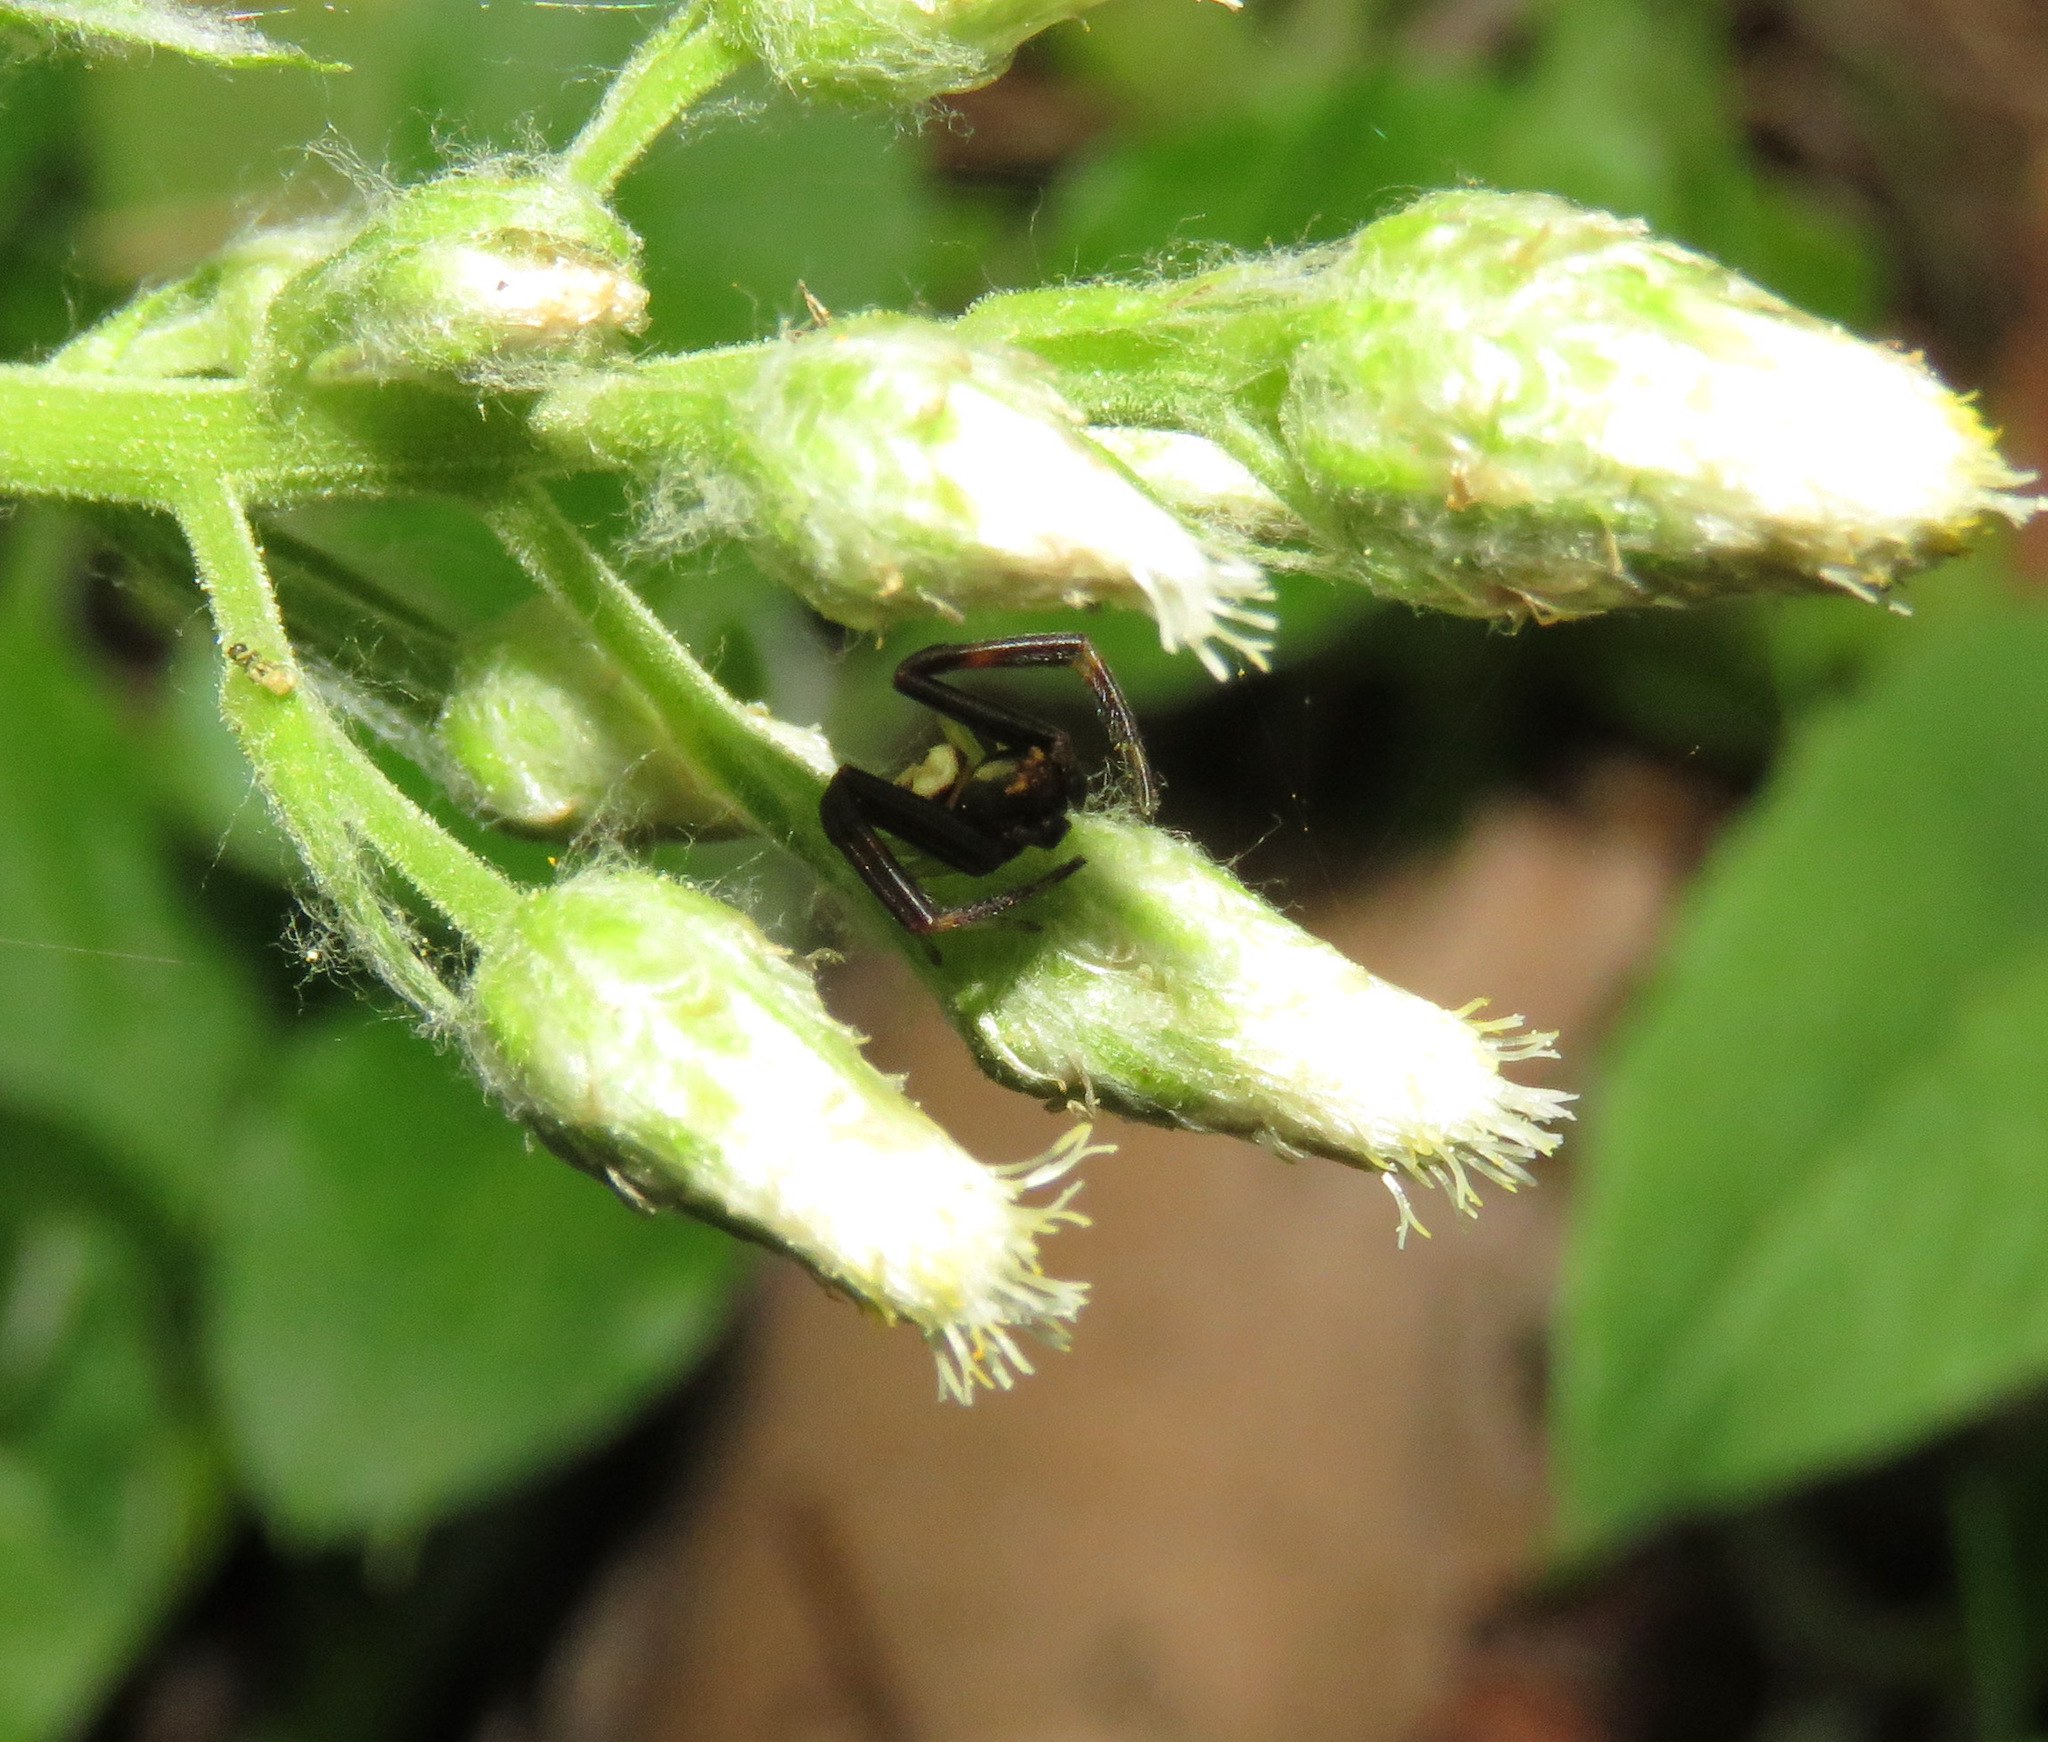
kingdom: Animalia
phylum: Arthropoda
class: Arachnida
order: Araneae
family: Thomisidae
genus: Misumena
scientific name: Misumena vatia
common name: Goldenrod crab spider
